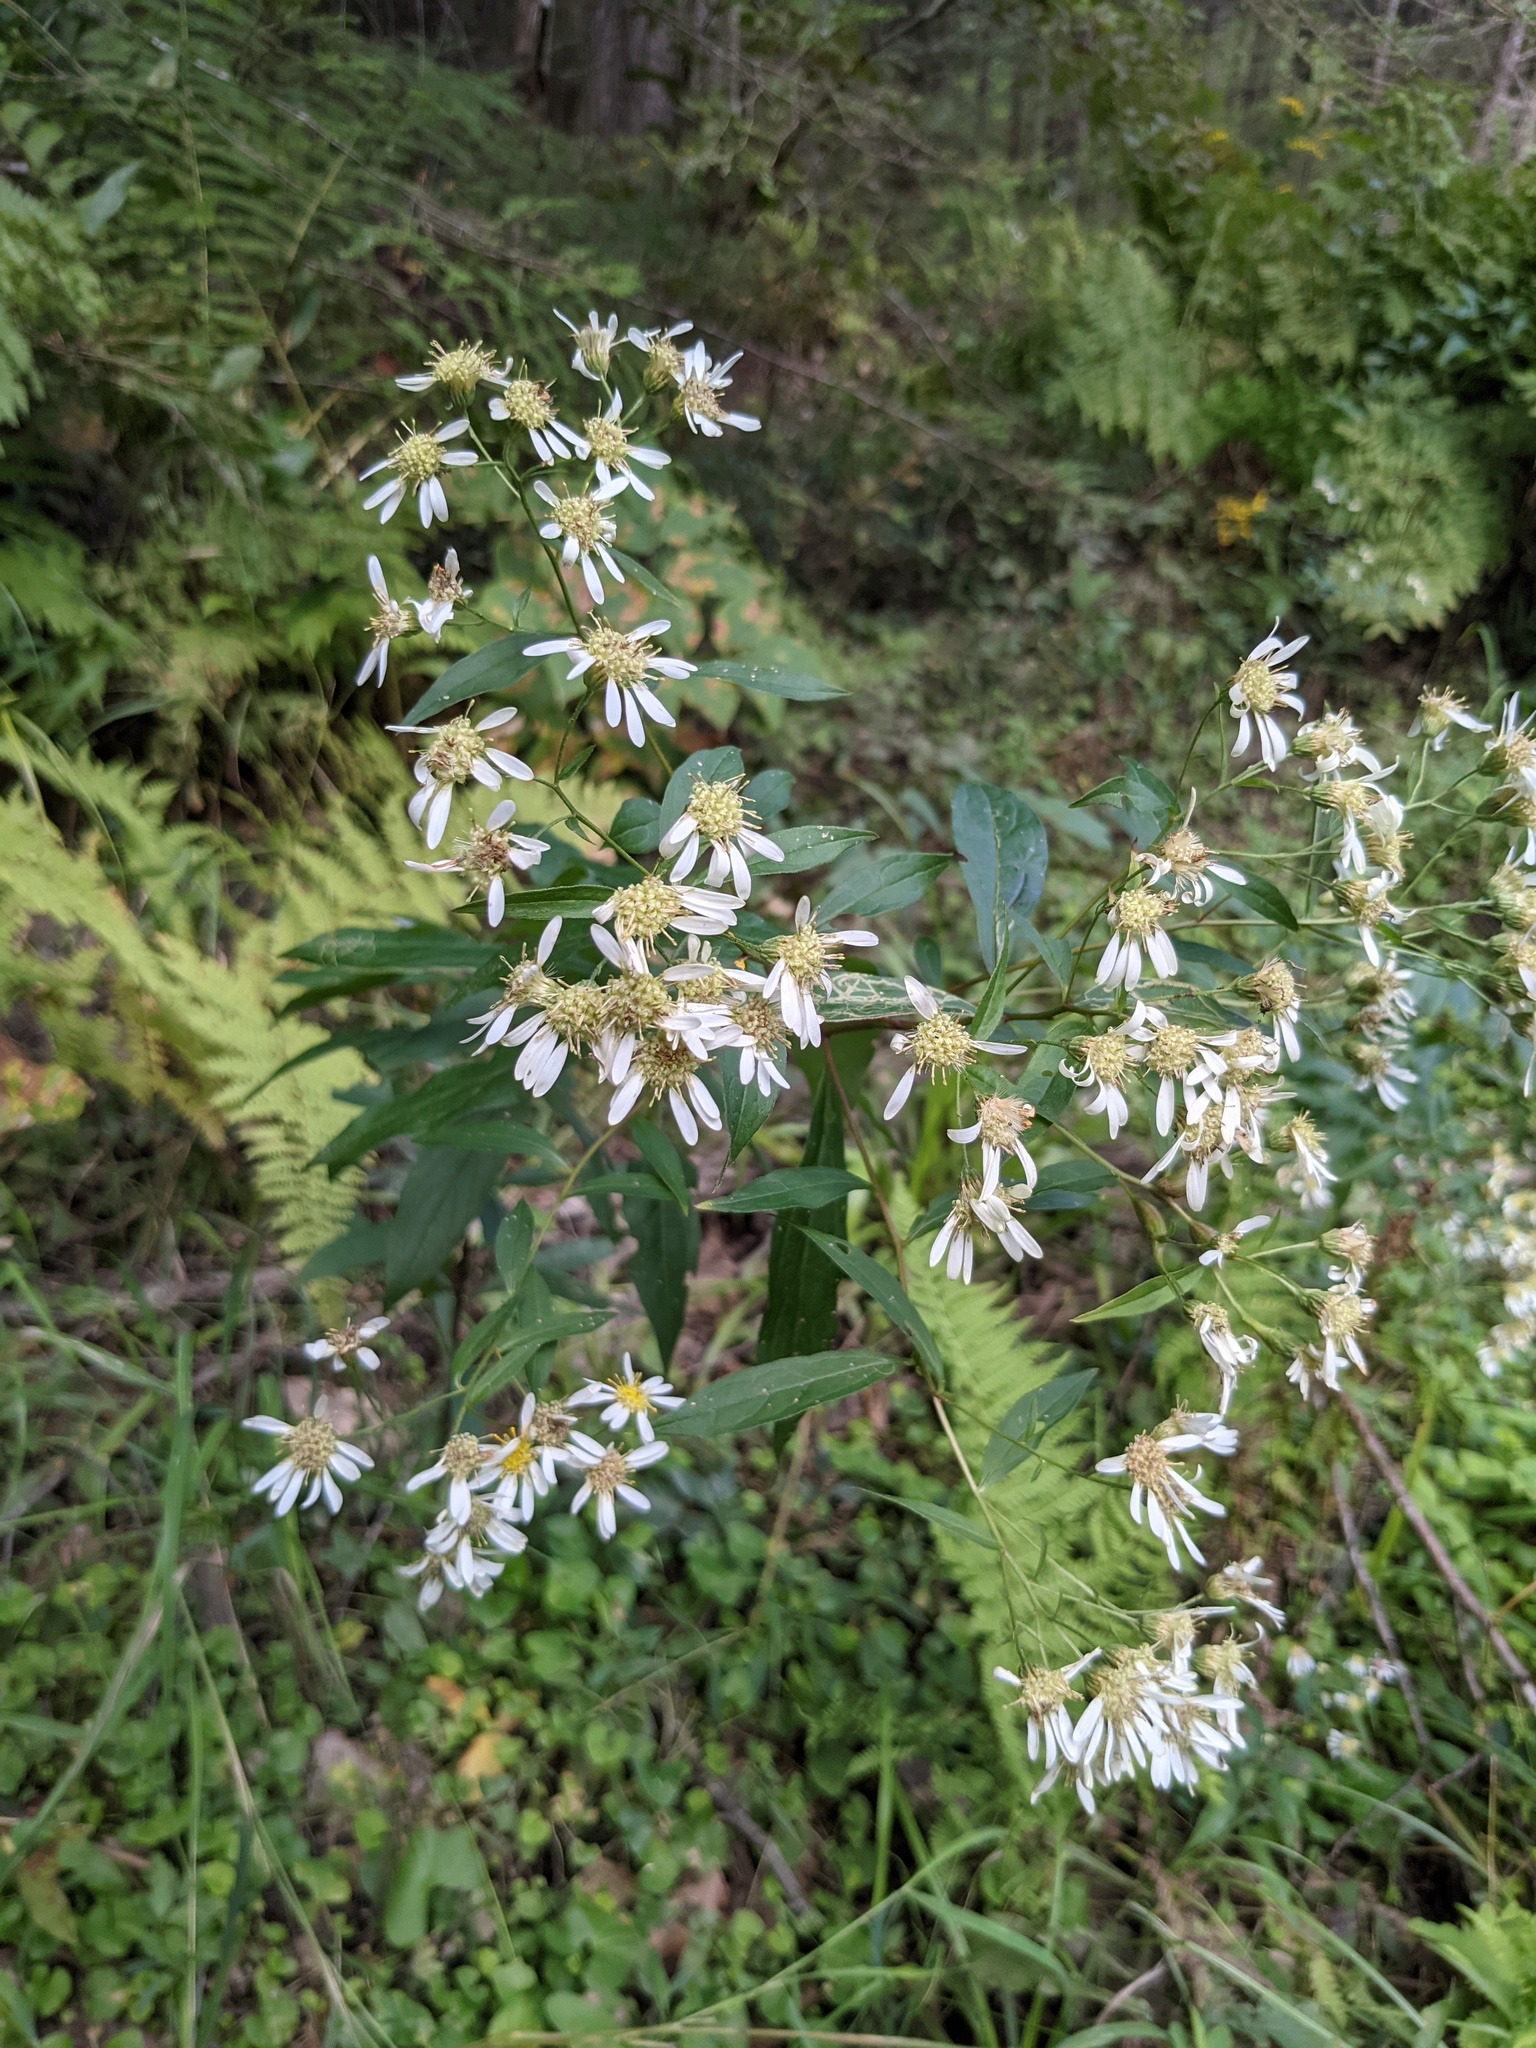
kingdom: Plantae
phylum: Tracheophyta
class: Magnoliopsida
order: Asterales
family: Asteraceae
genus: Doellingeria
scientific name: Doellingeria umbellata
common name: Flat-top white aster
